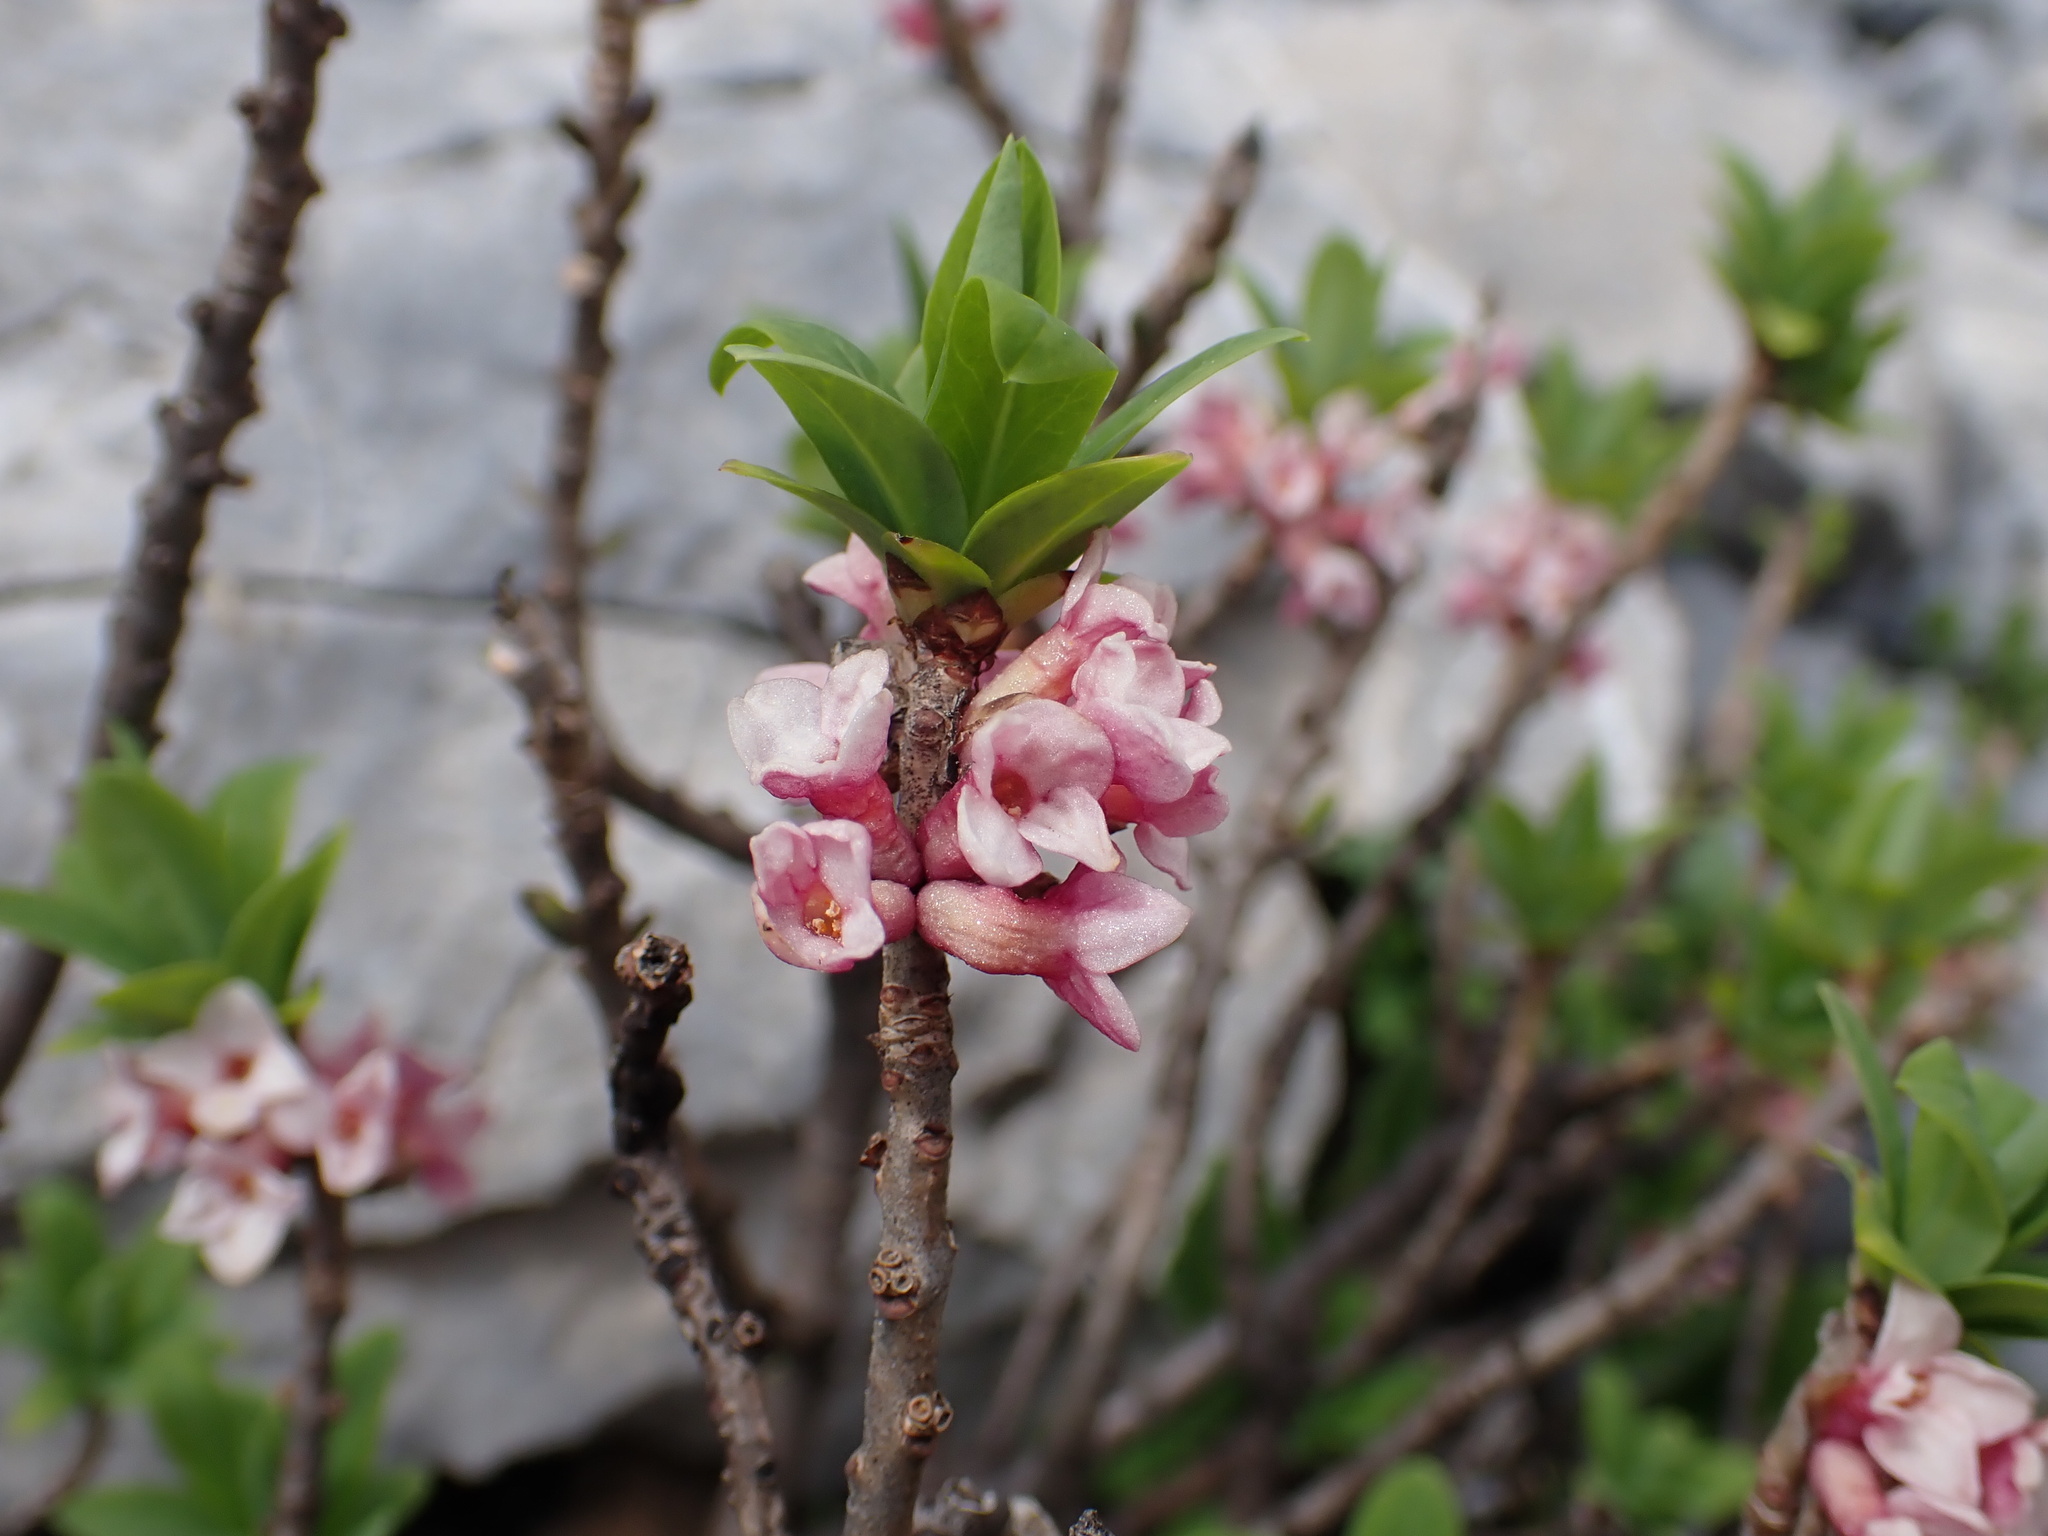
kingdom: Plantae
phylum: Tracheophyta
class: Magnoliopsida
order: Malvales
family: Thymelaeaceae
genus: Daphne
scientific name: Daphne mezereum
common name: Mezereon
